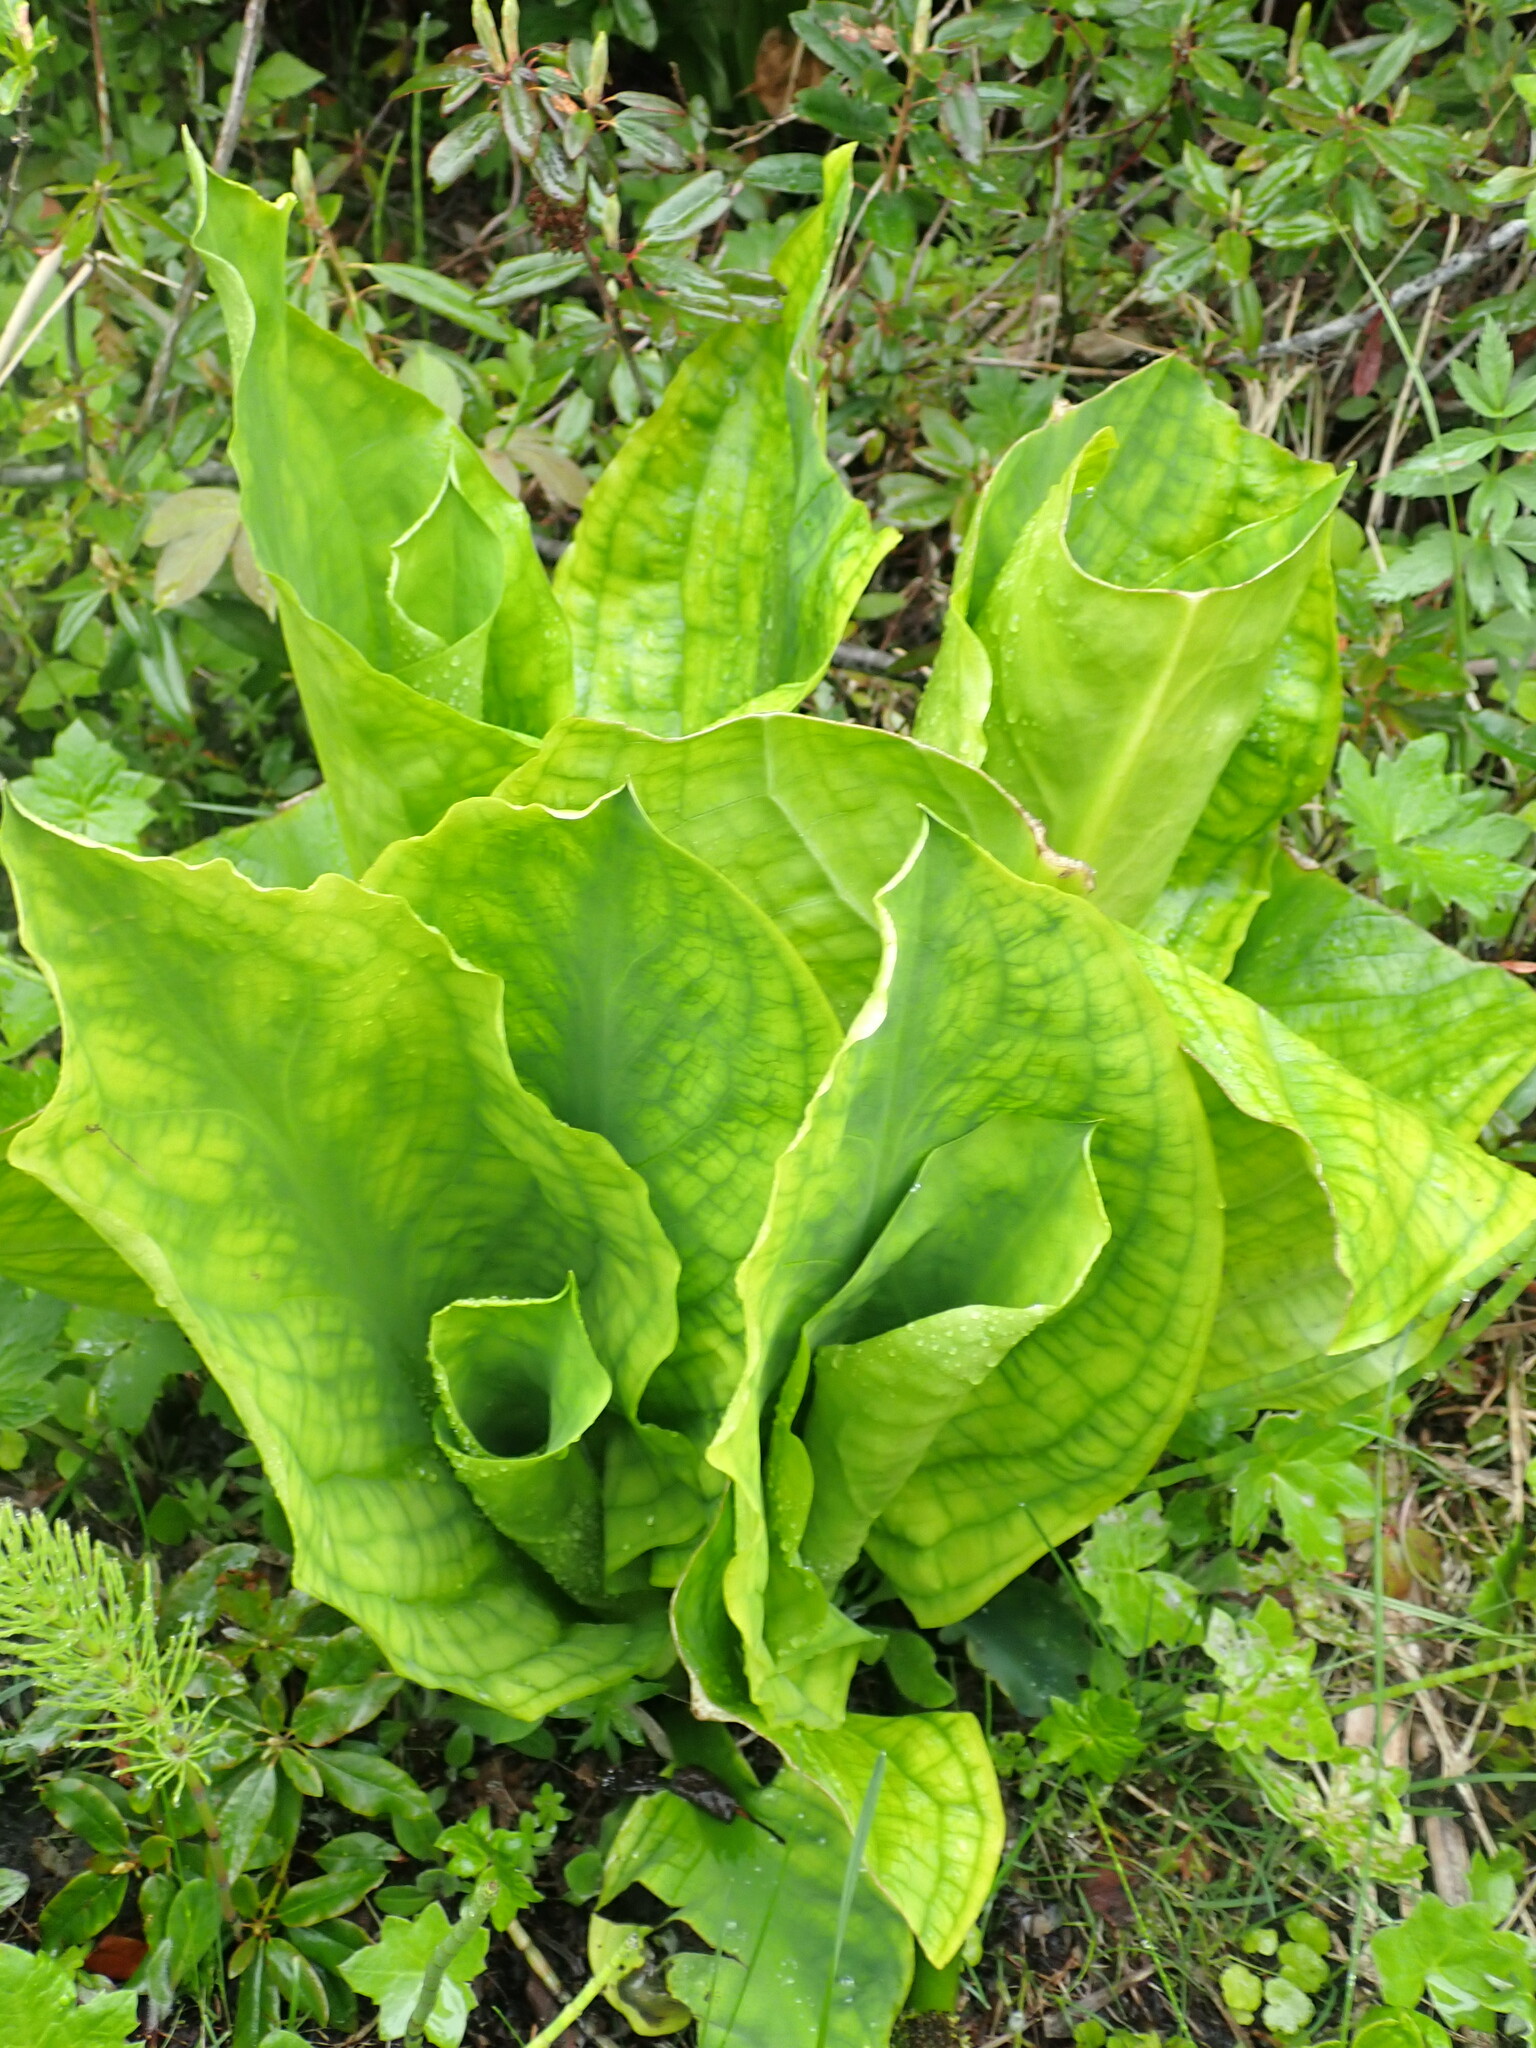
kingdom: Plantae
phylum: Tracheophyta
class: Liliopsida
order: Alismatales
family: Araceae
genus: Lysichiton
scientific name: Lysichiton americanus
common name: American skunk cabbage
